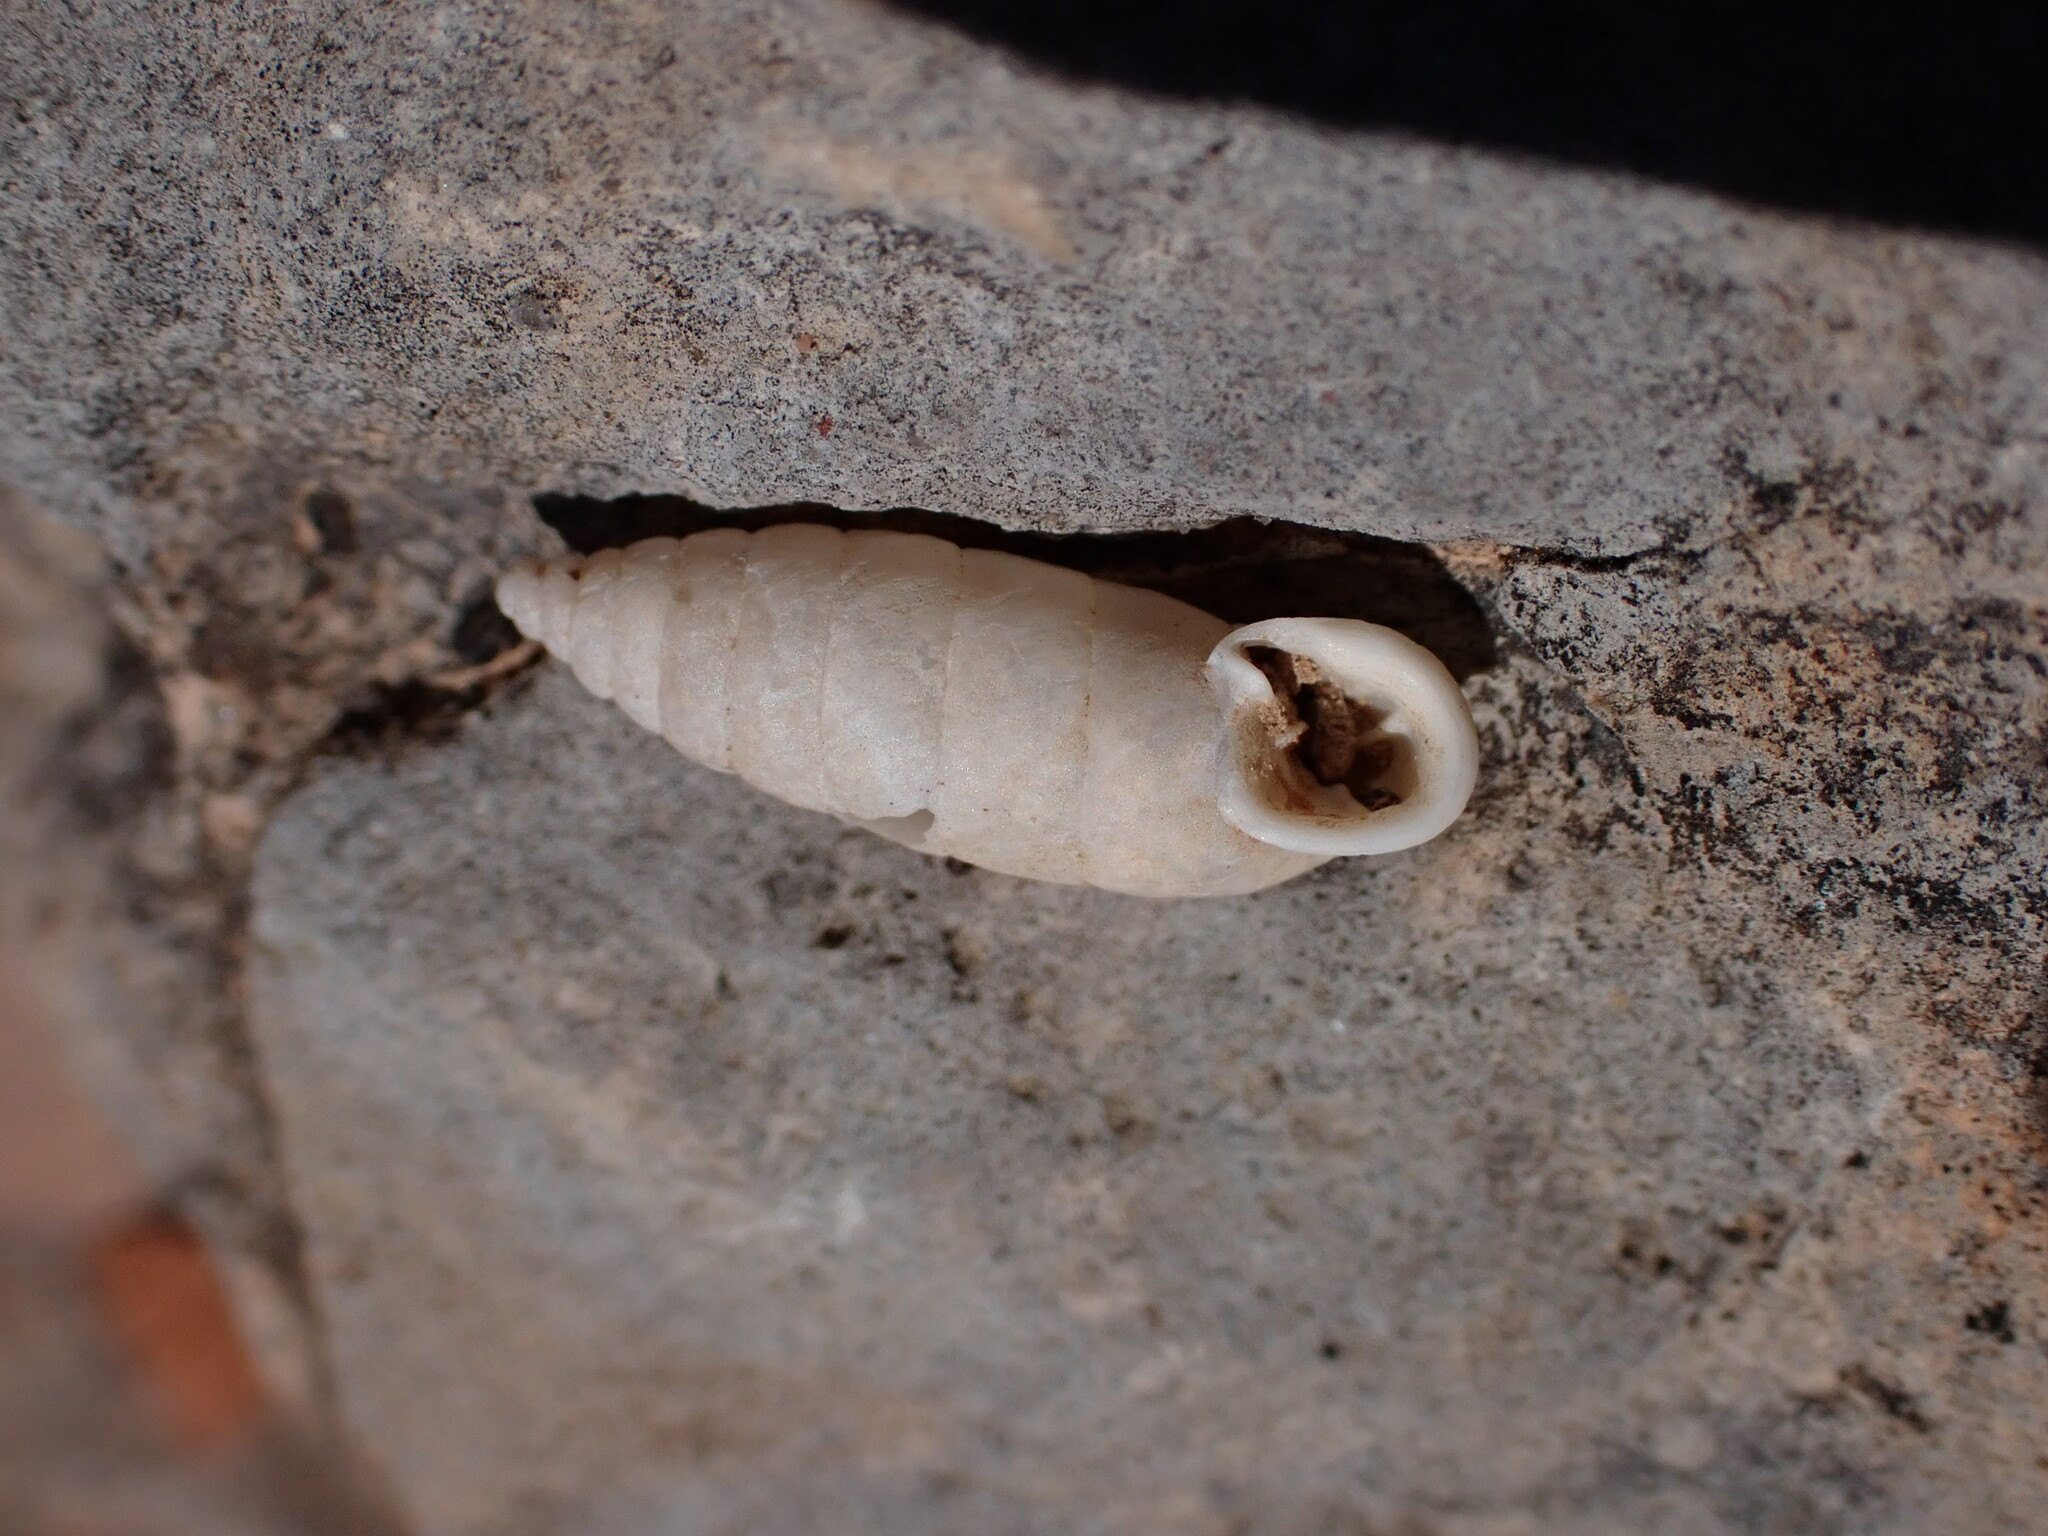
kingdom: Animalia
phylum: Mollusca
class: Gastropoda
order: Stylommatophora
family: Chondrinidae
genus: Granaria
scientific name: Granaria variabilis
